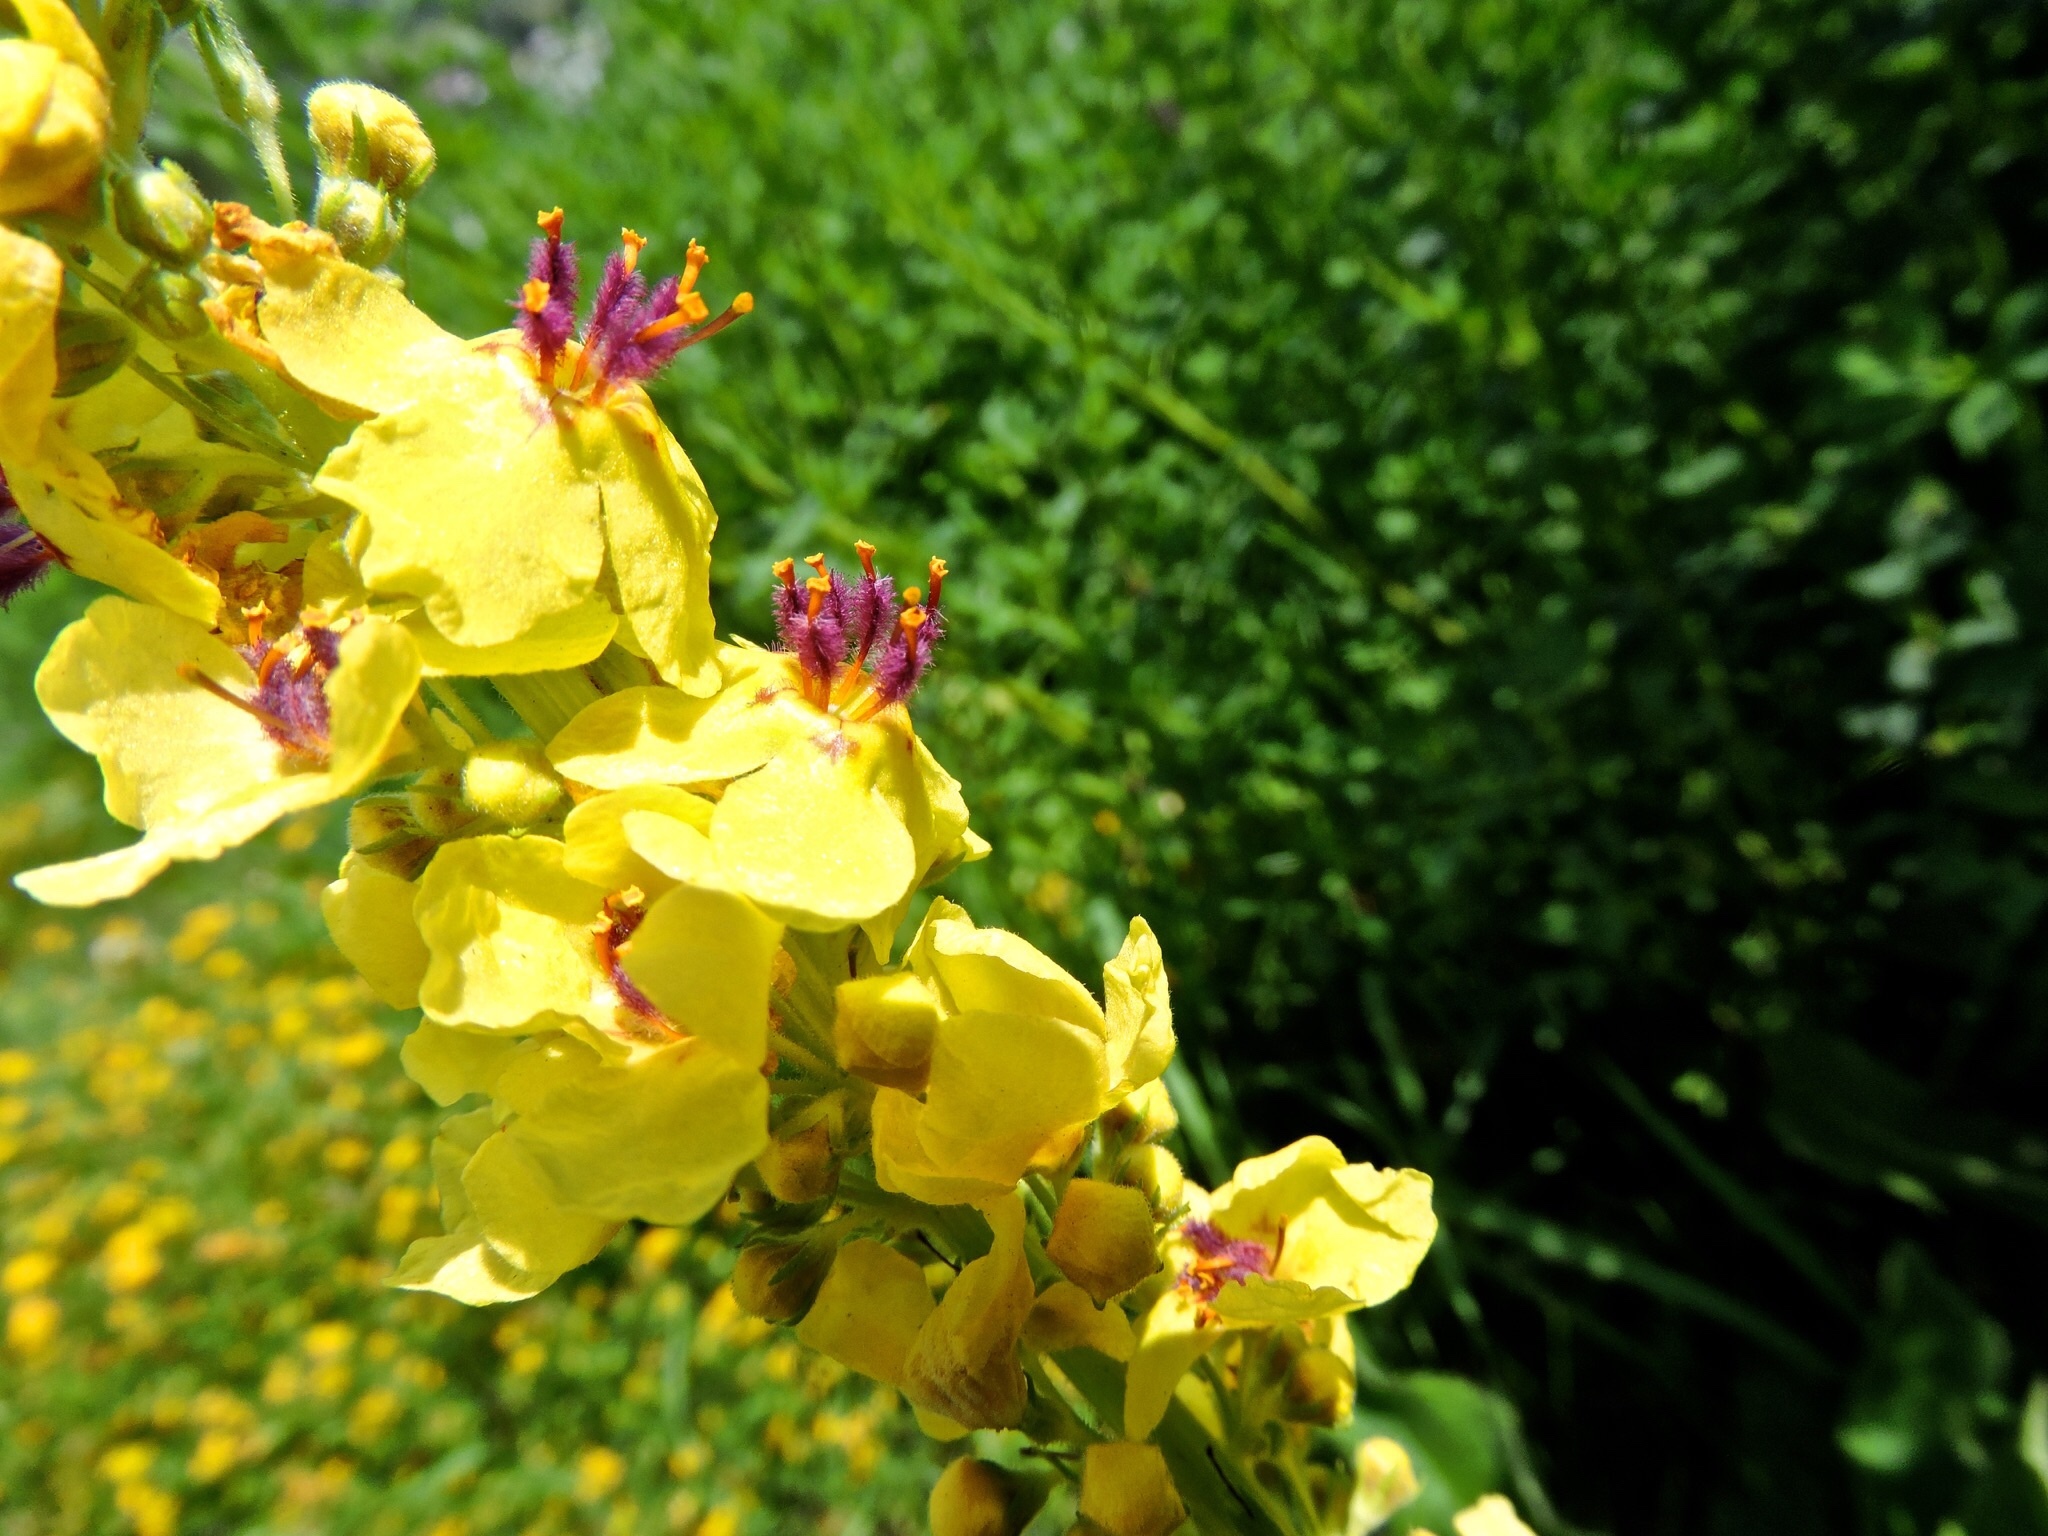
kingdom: Plantae
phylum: Tracheophyta
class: Magnoliopsida
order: Lamiales
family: Scrophulariaceae
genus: Verbascum
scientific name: Verbascum nigrum
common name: Dark mullein
